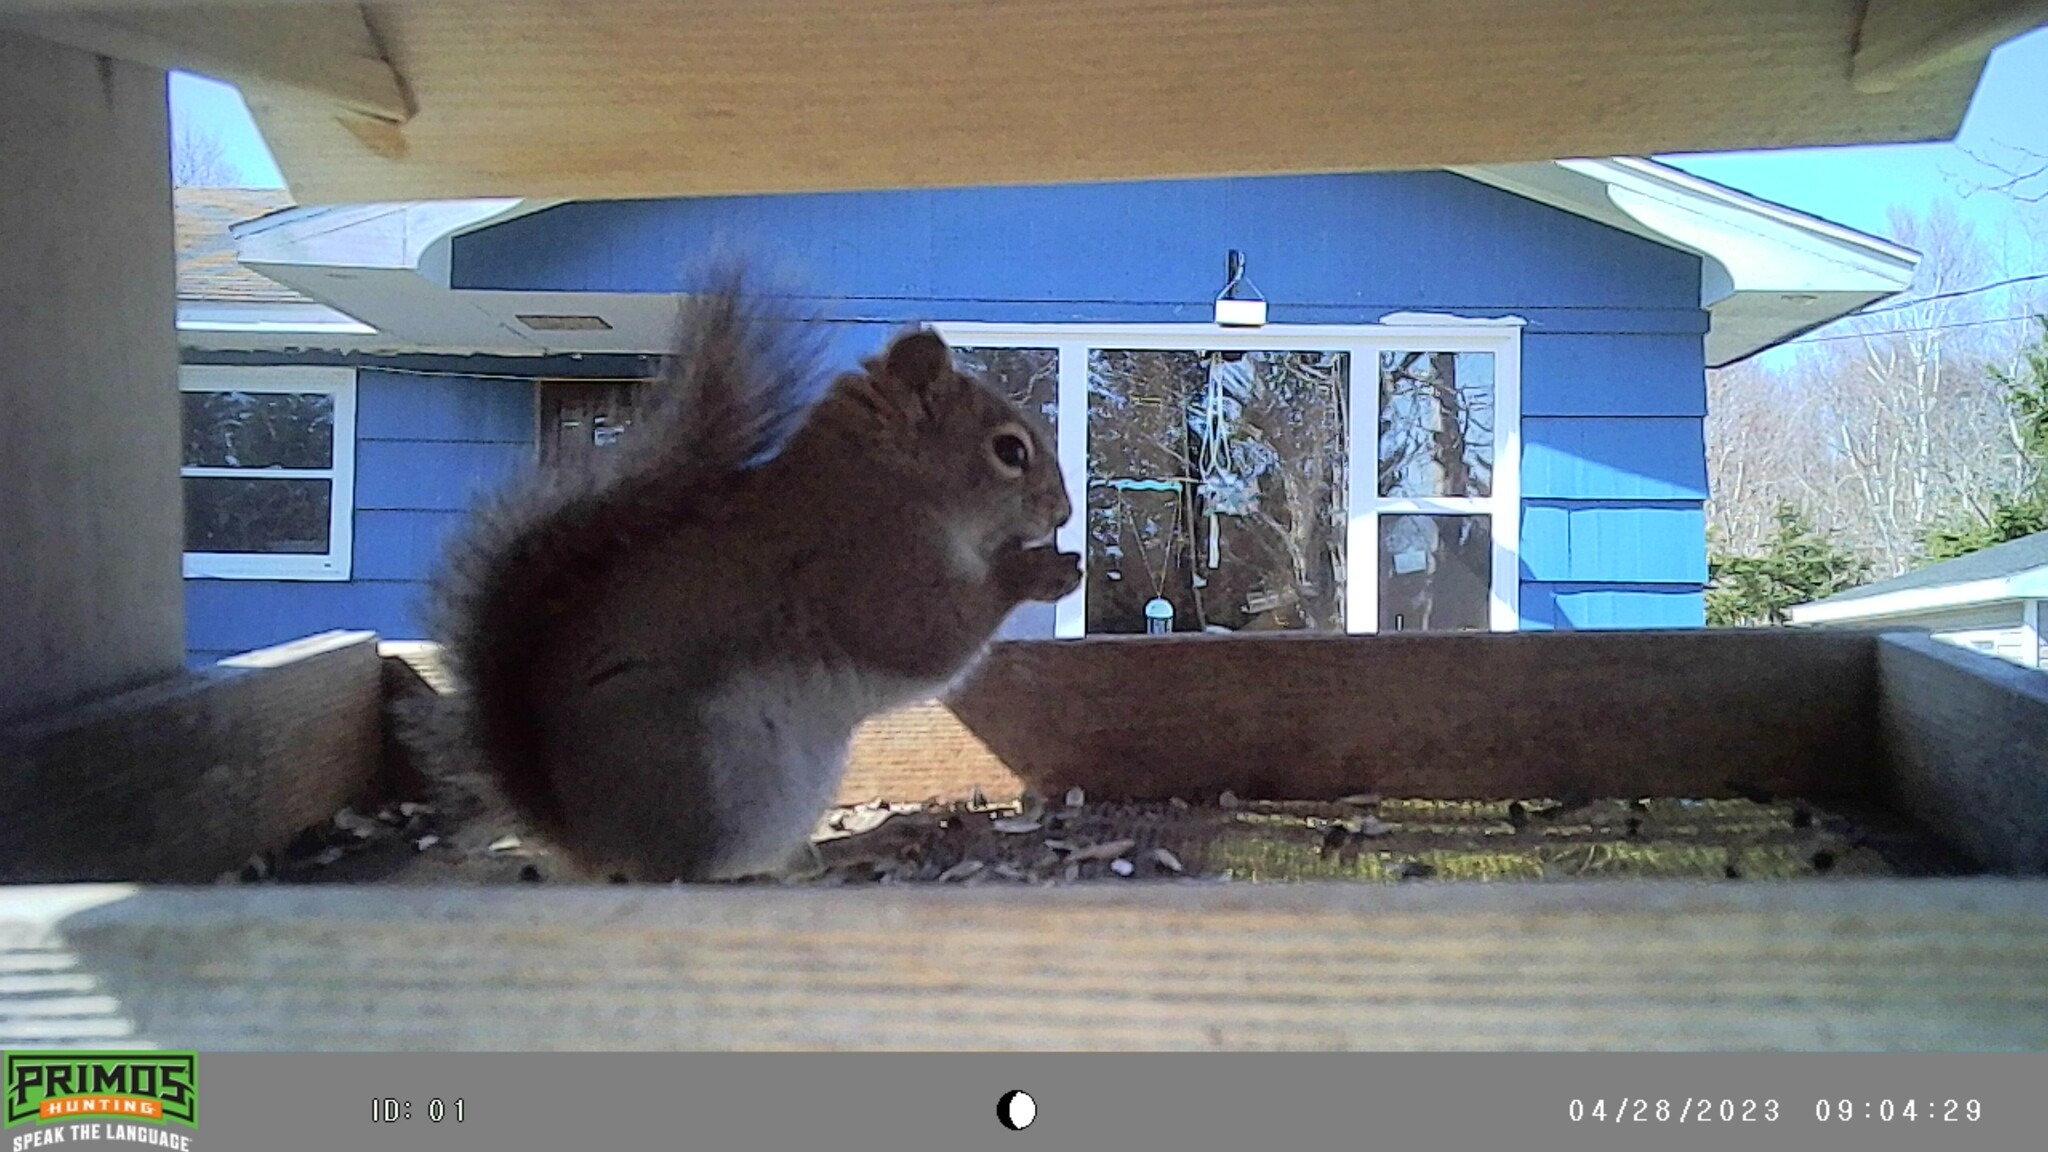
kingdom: Animalia
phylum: Chordata
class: Mammalia
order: Rodentia
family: Sciuridae
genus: Tamiasciurus
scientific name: Tamiasciurus hudsonicus
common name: Red squirrel
